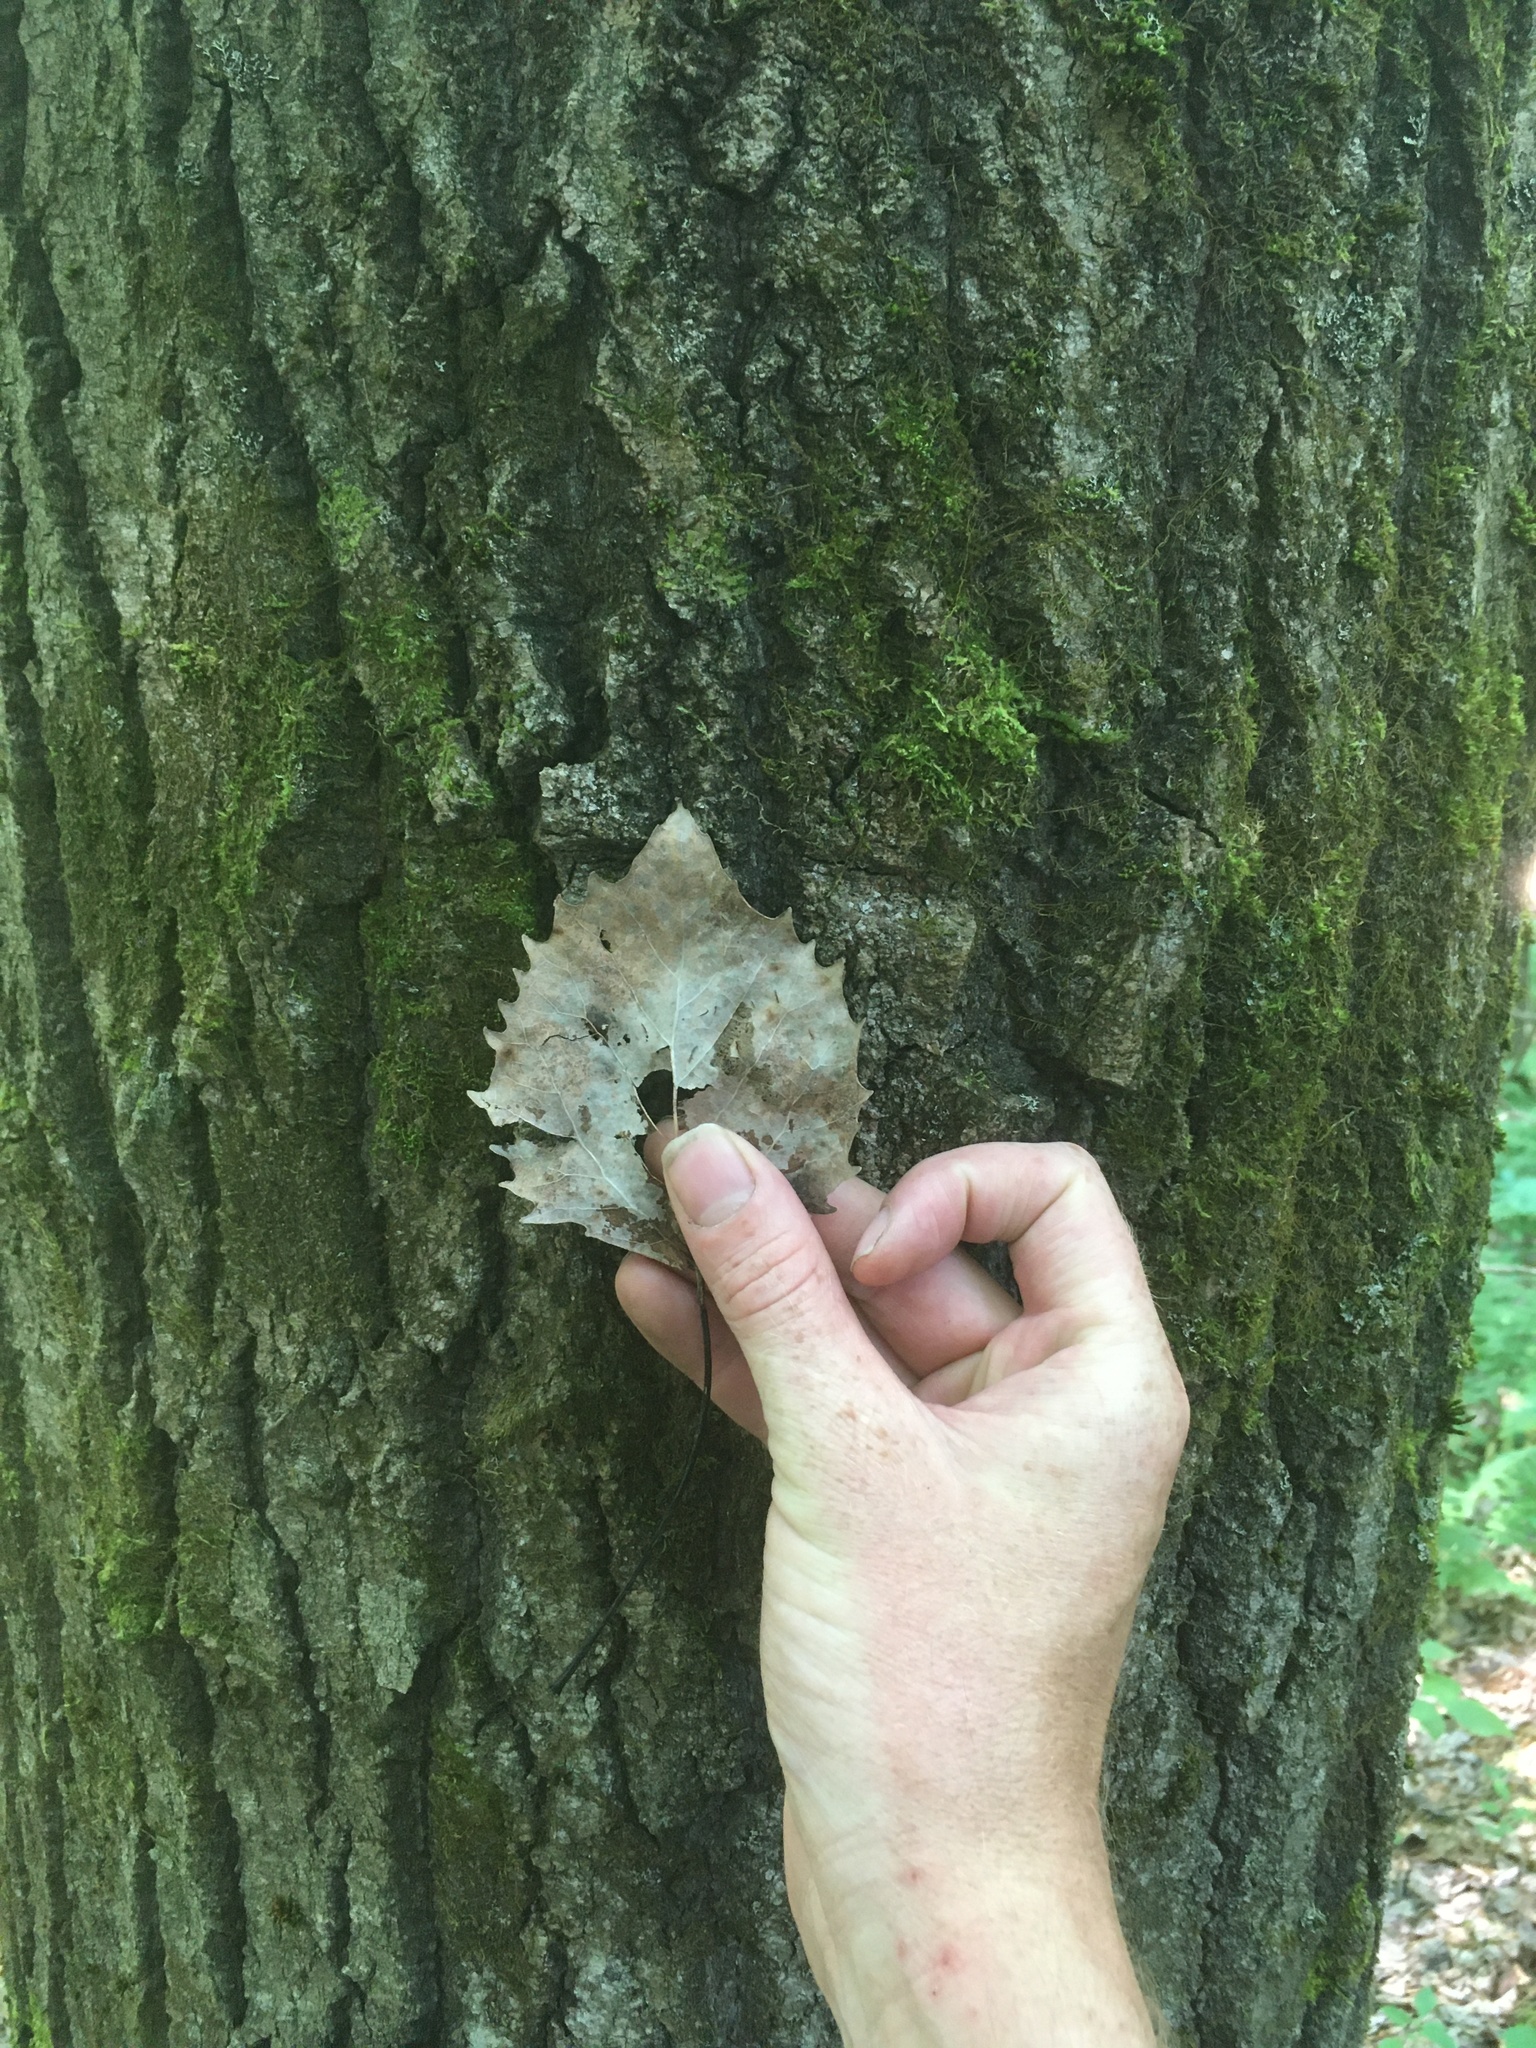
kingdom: Plantae
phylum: Tracheophyta
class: Magnoliopsida
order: Malpighiales
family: Salicaceae
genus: Populus
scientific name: Populus grandidentata
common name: Bigtooth aspen
